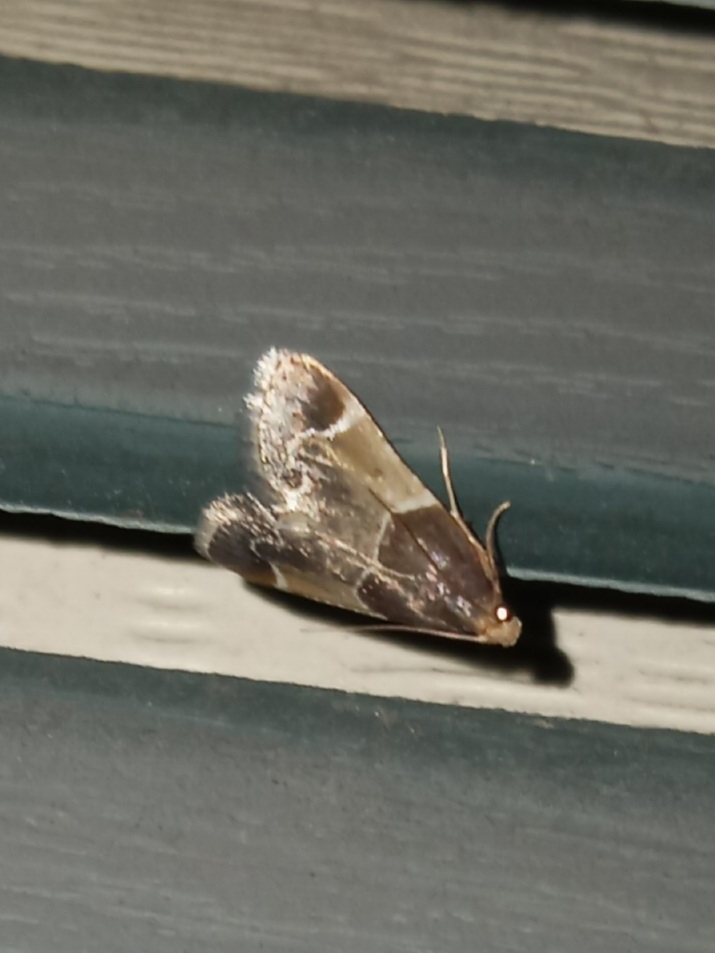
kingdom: Animalia
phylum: Arthropoda
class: Insecta
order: Lepidoptera
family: Pyralidae
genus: Pyralis
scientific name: Pyralis farinalis
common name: Meal moth
